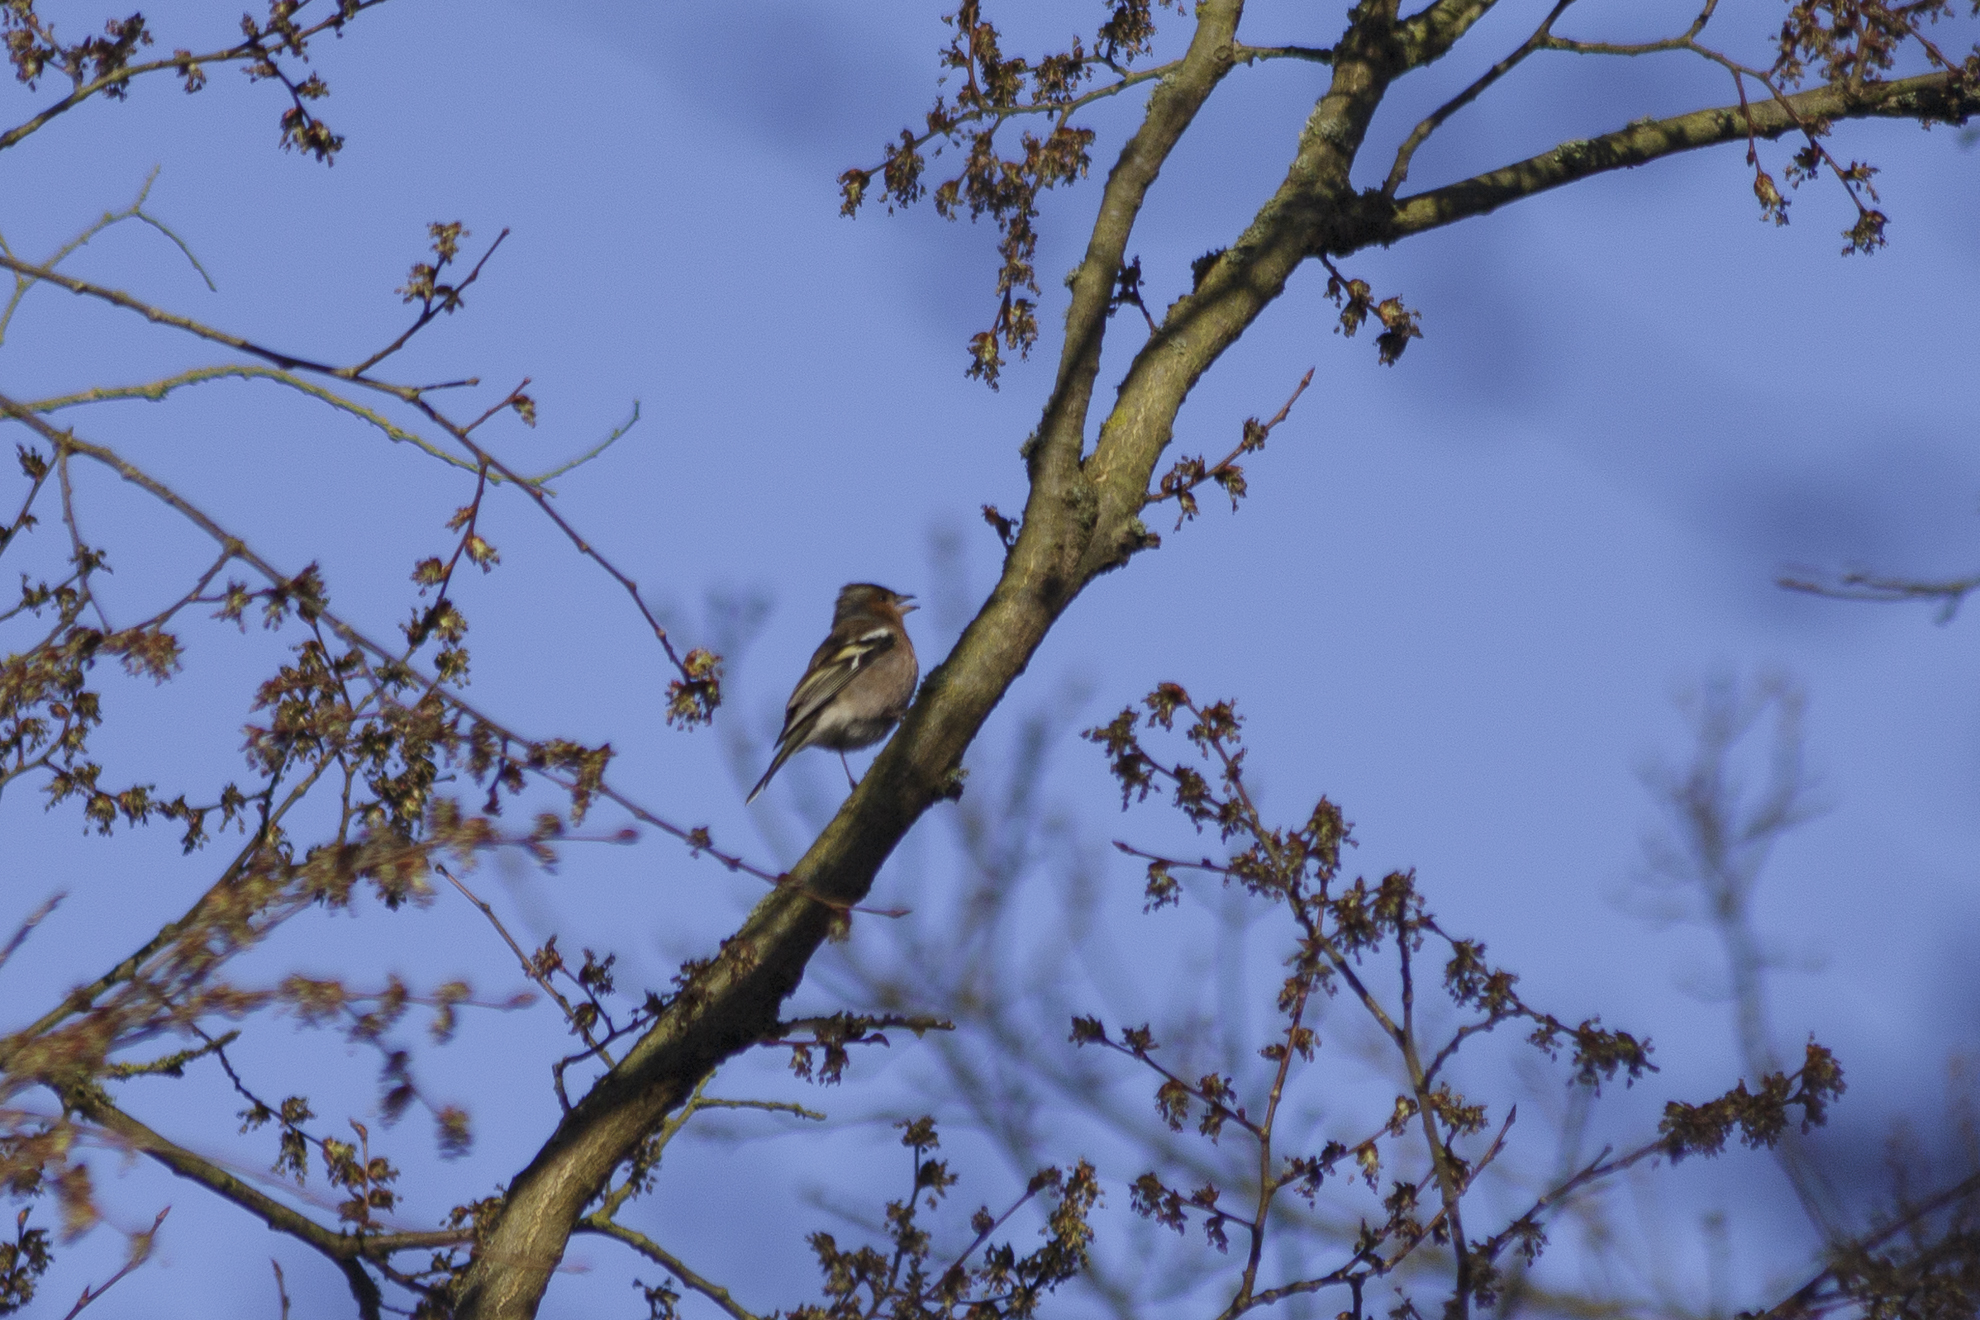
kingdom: Animalia
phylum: Chordata
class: Aves
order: Passeriformes
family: Fringillidae
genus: Fringilla
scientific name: Fringilla coelebs
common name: Common chaffinch
